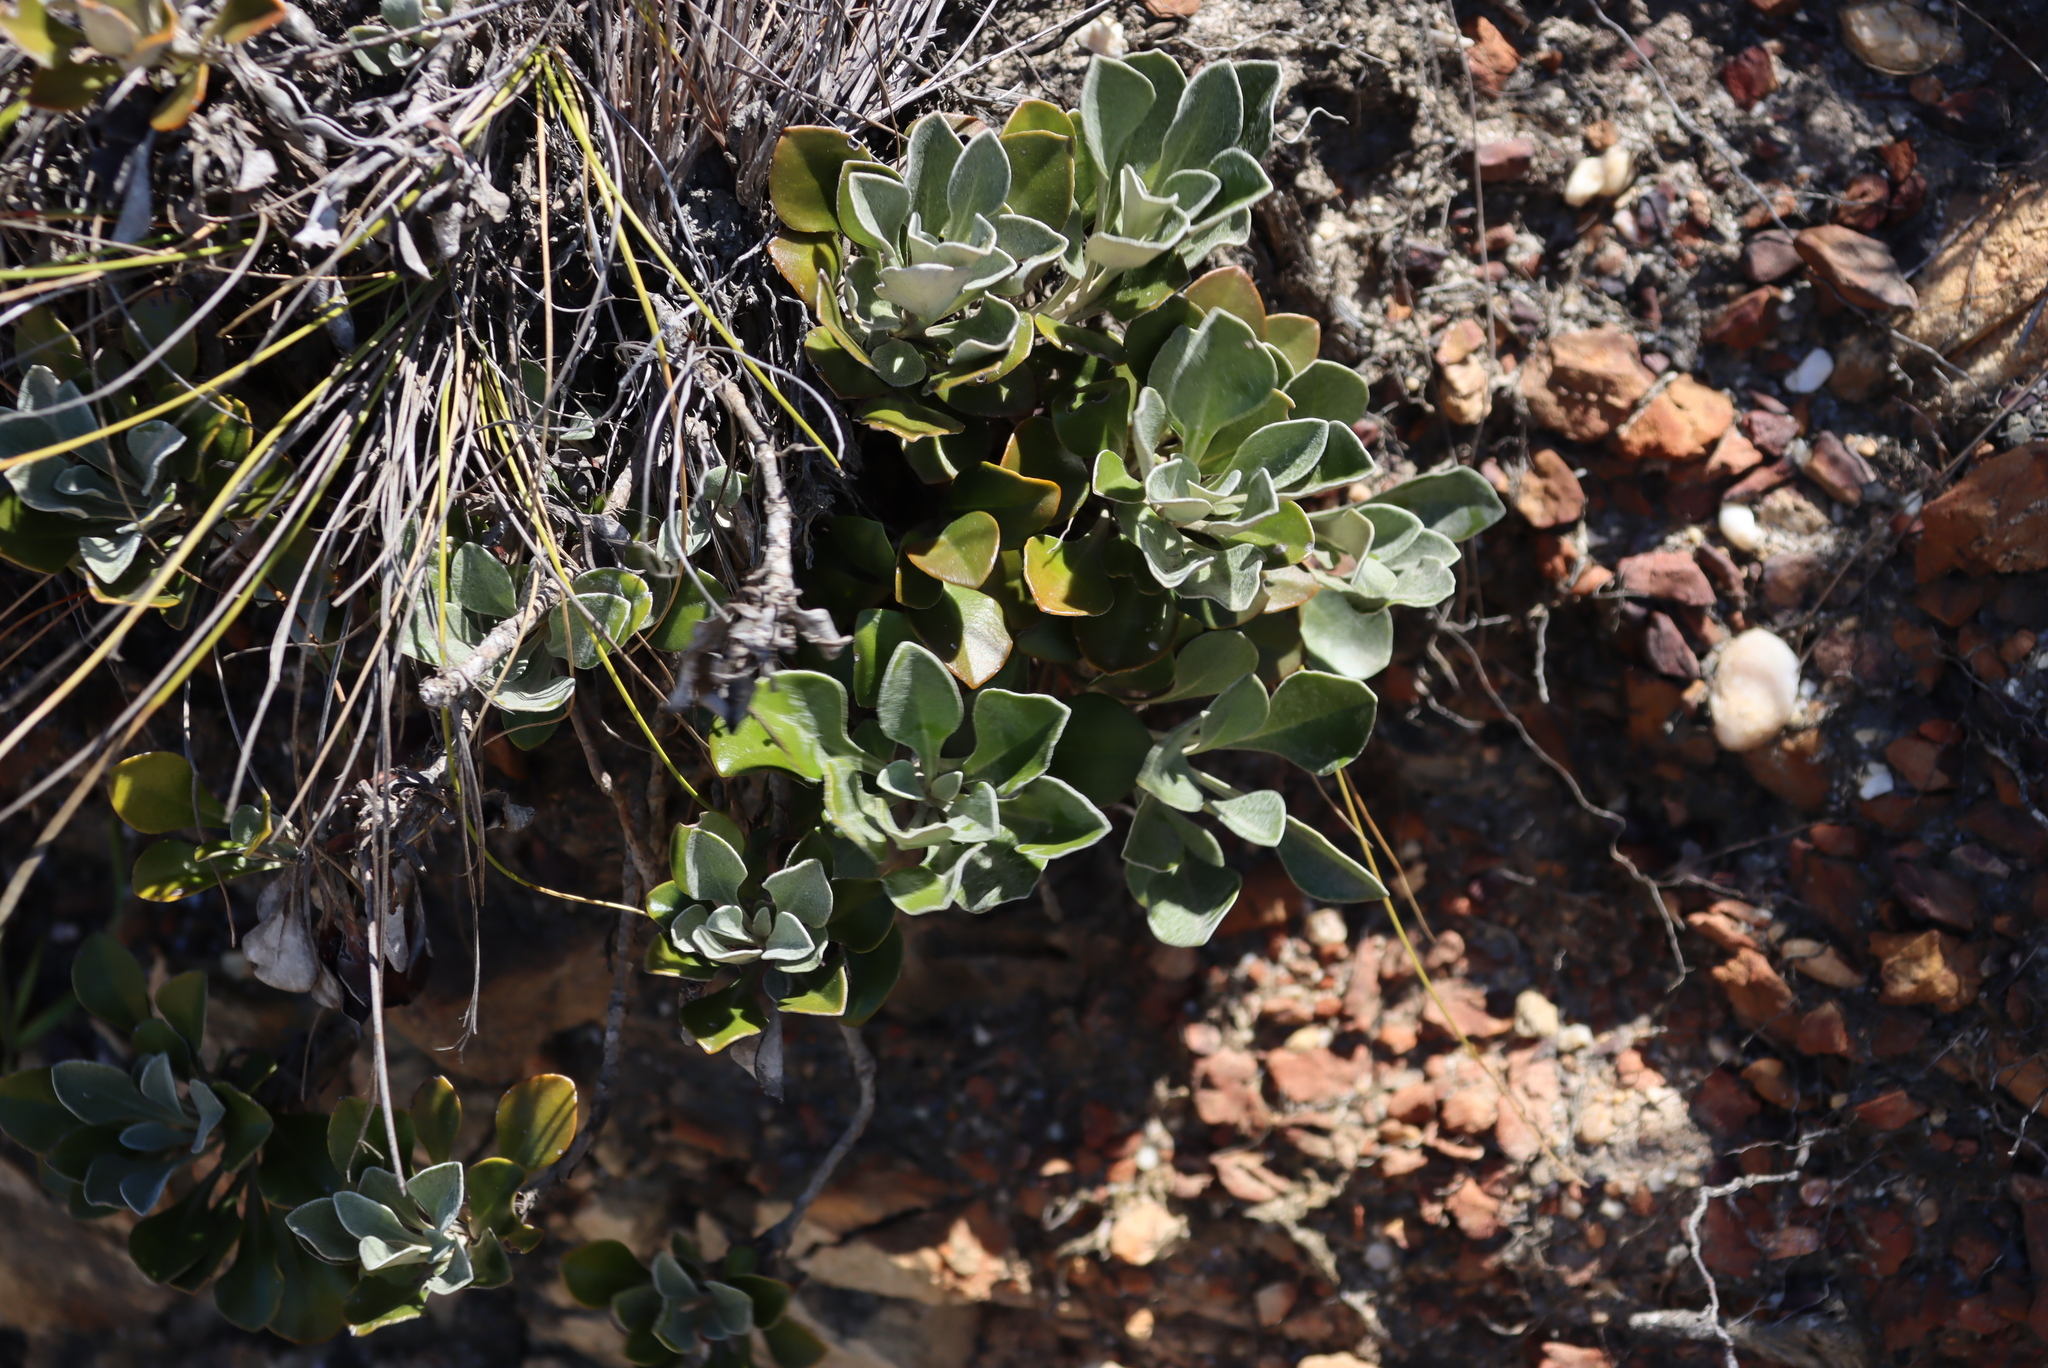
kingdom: Plantae
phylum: Tracheophyta
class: Magnoliopsida
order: Asterales
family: Asteraceae
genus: Osteospermum
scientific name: Osteospermum tomentosum
